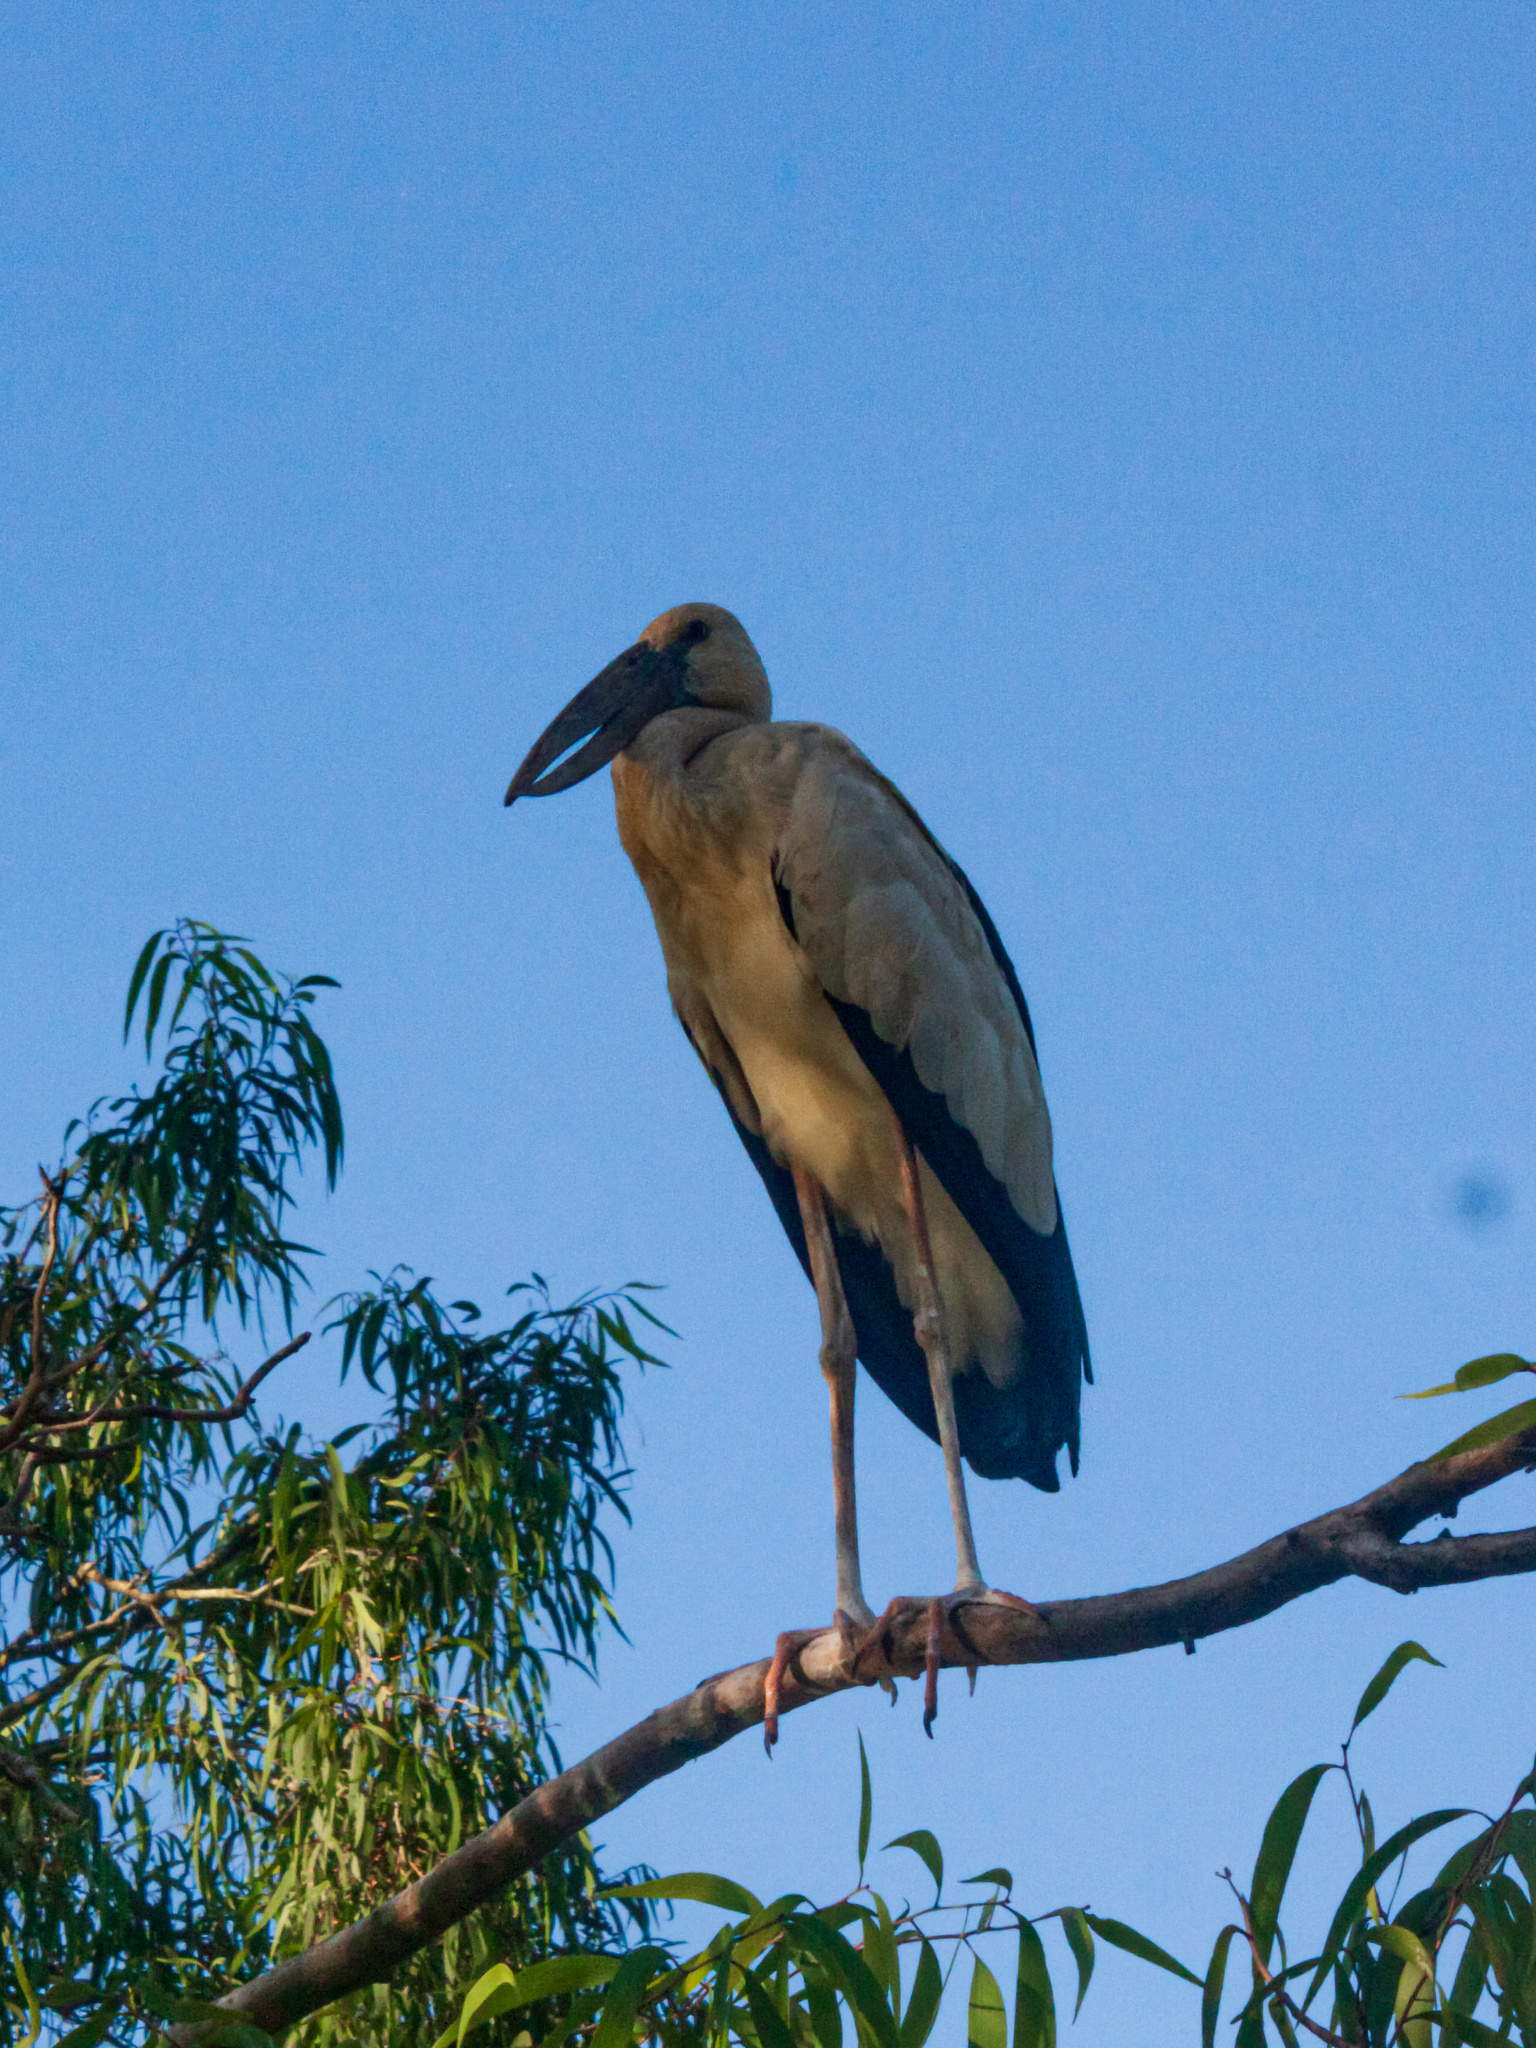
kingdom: Animalia
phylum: Chordata
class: Aves
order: Ciconiiformes
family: Ciconiidae
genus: Anastomus
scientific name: Anastomus oscitans
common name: Asian openbill
